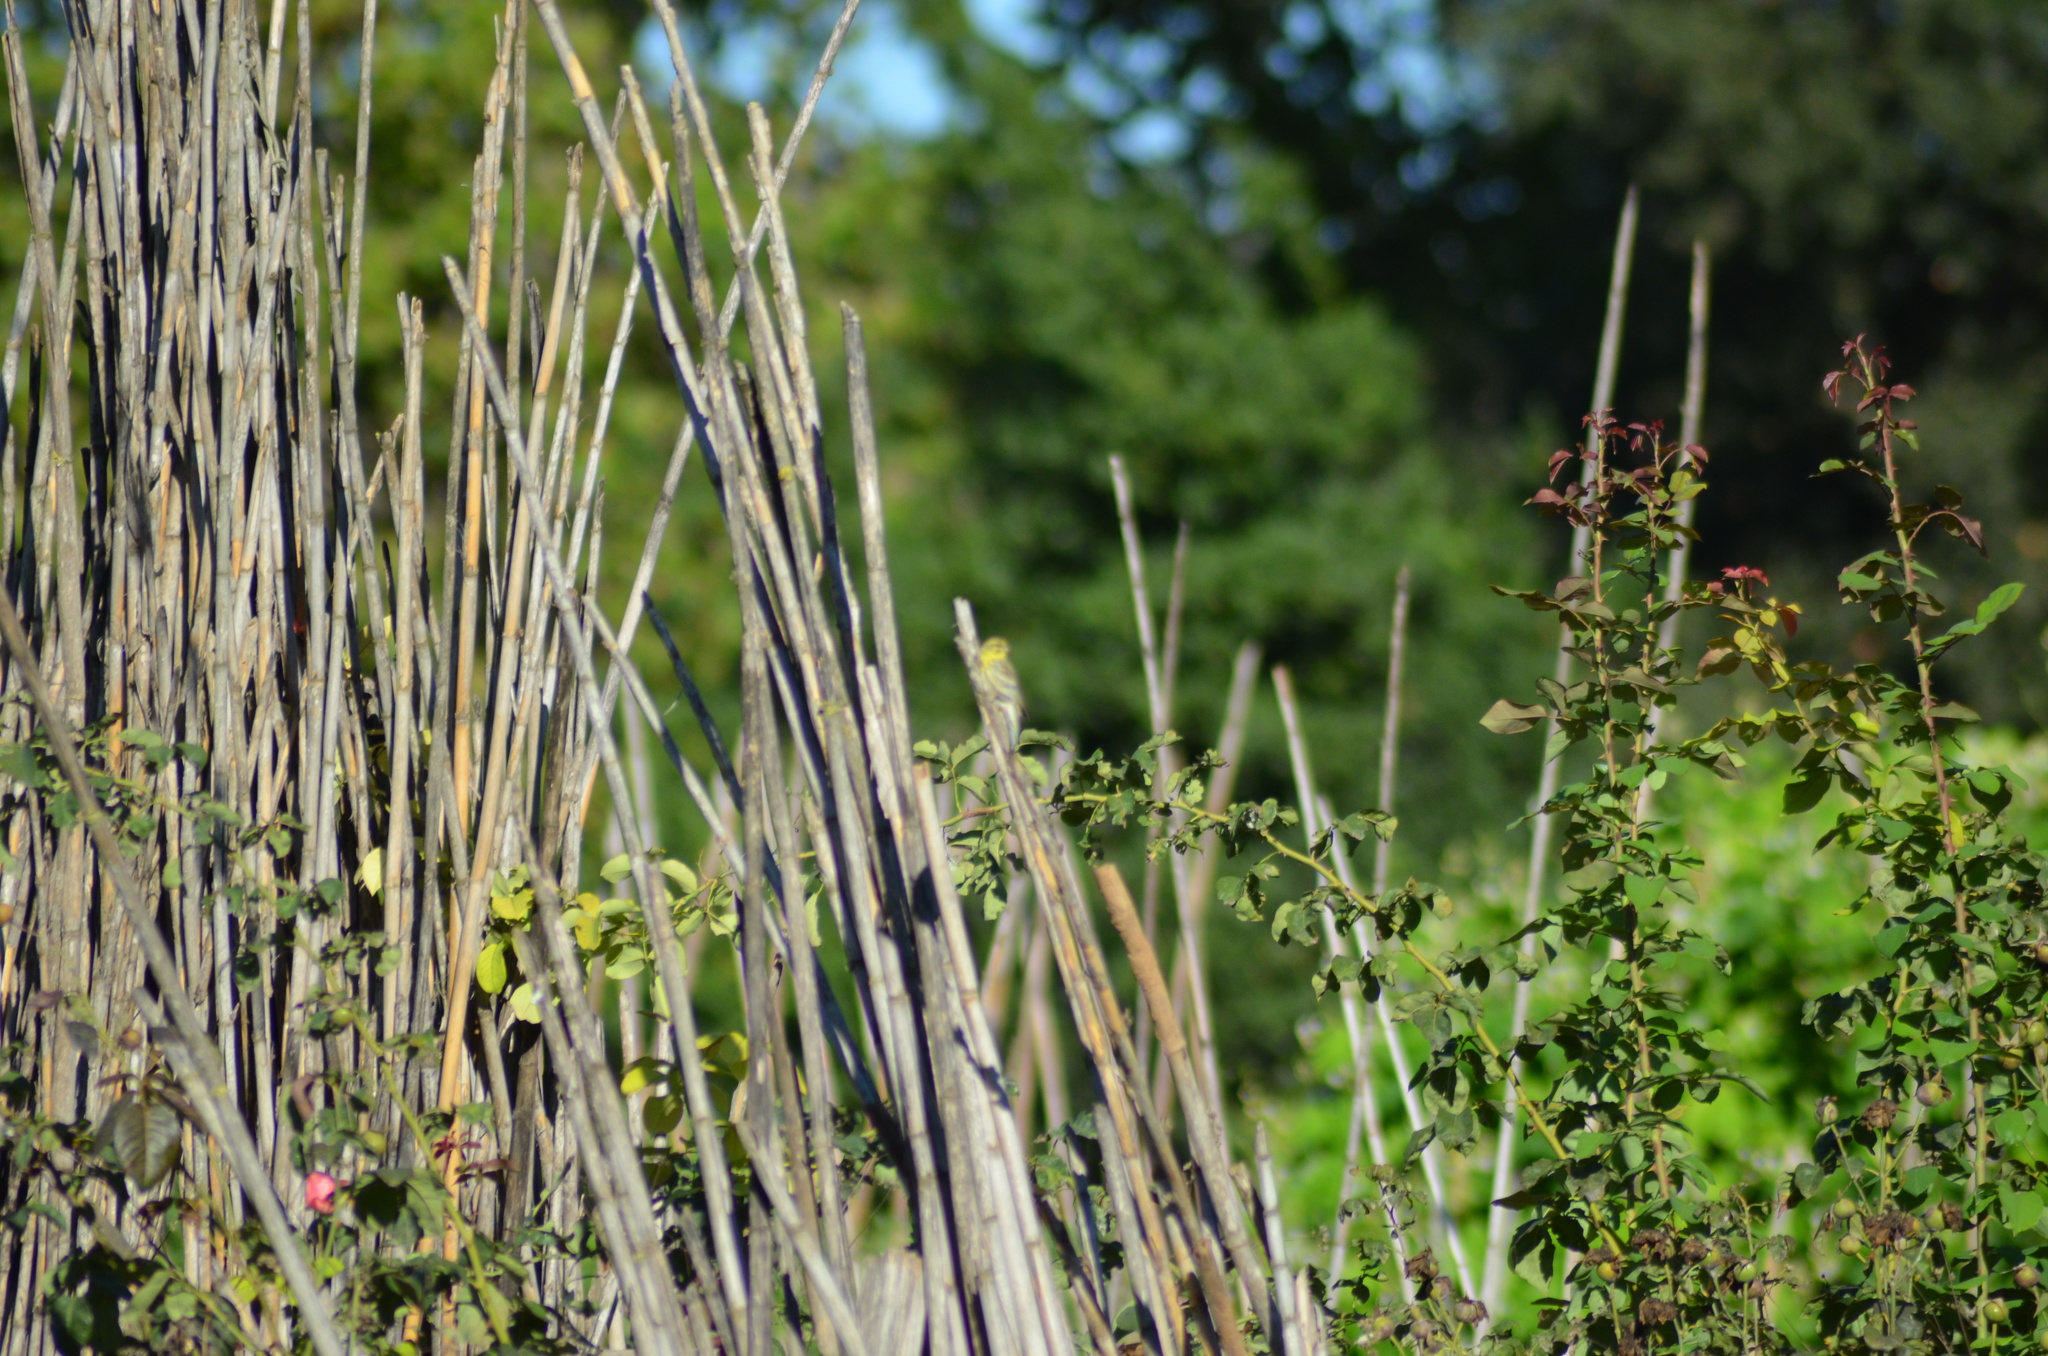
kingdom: Animalia
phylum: Chordata
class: Aves
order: Passeriformes
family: Fringillidae
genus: Serinus
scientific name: Serinus serinus
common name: European serin
